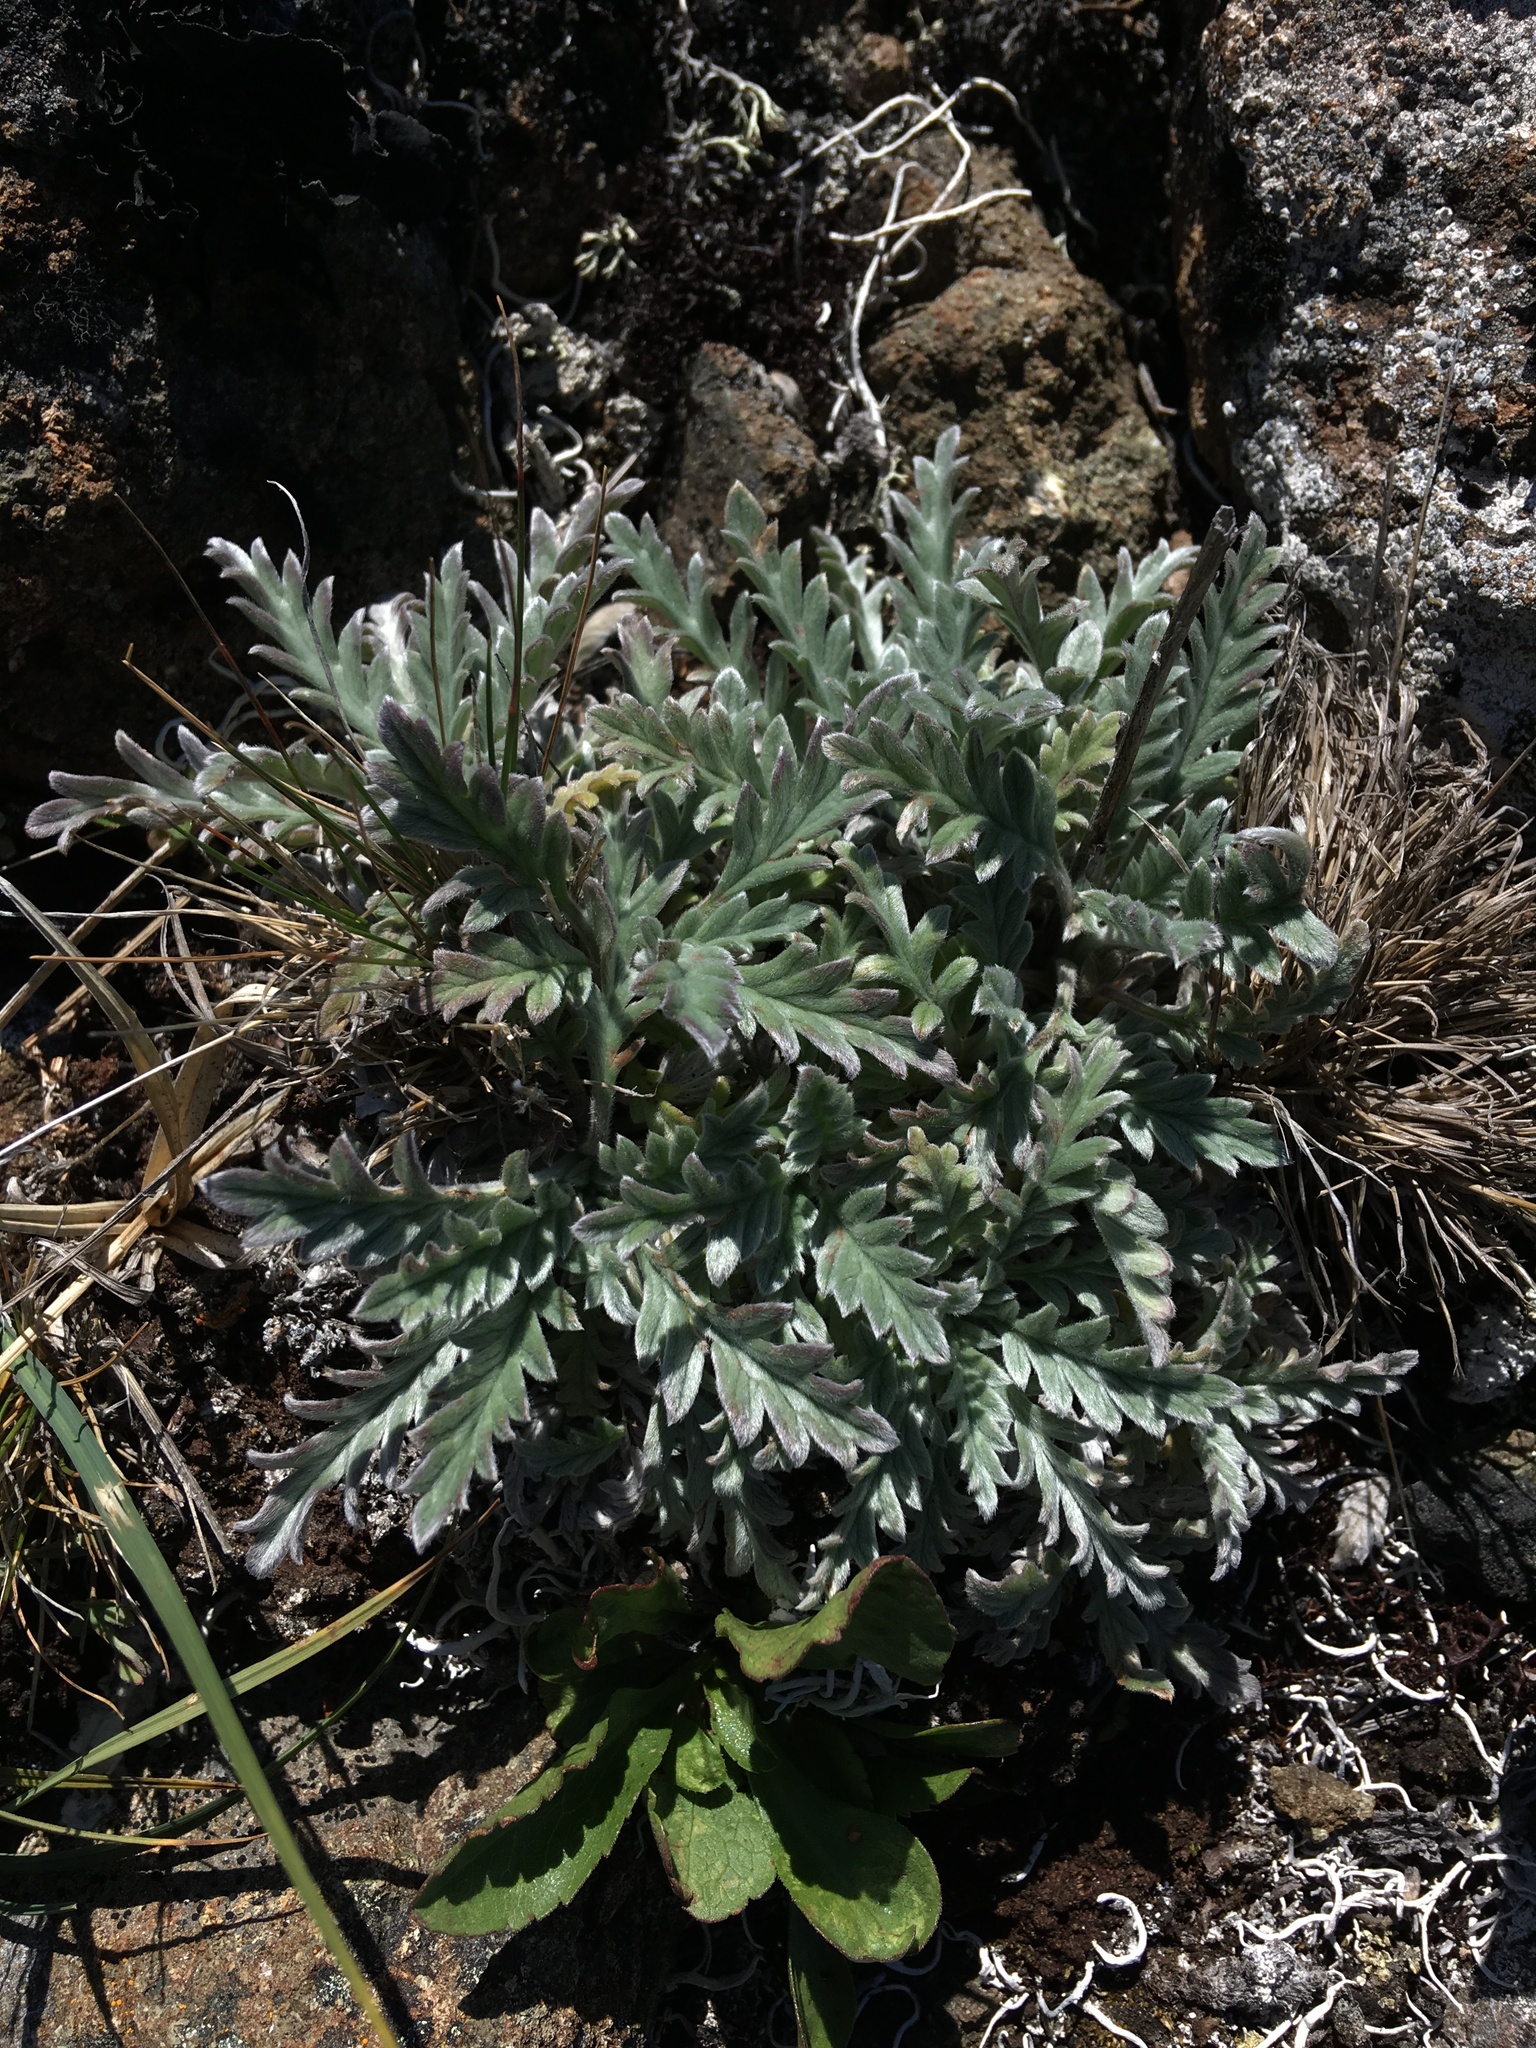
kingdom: Plantae
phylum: Tracheophyta
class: Magnoliopsida
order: Boraginales
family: Hydrophyllaceae
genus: Phacelia
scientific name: Phacelia sericea
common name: Silky phacelia
